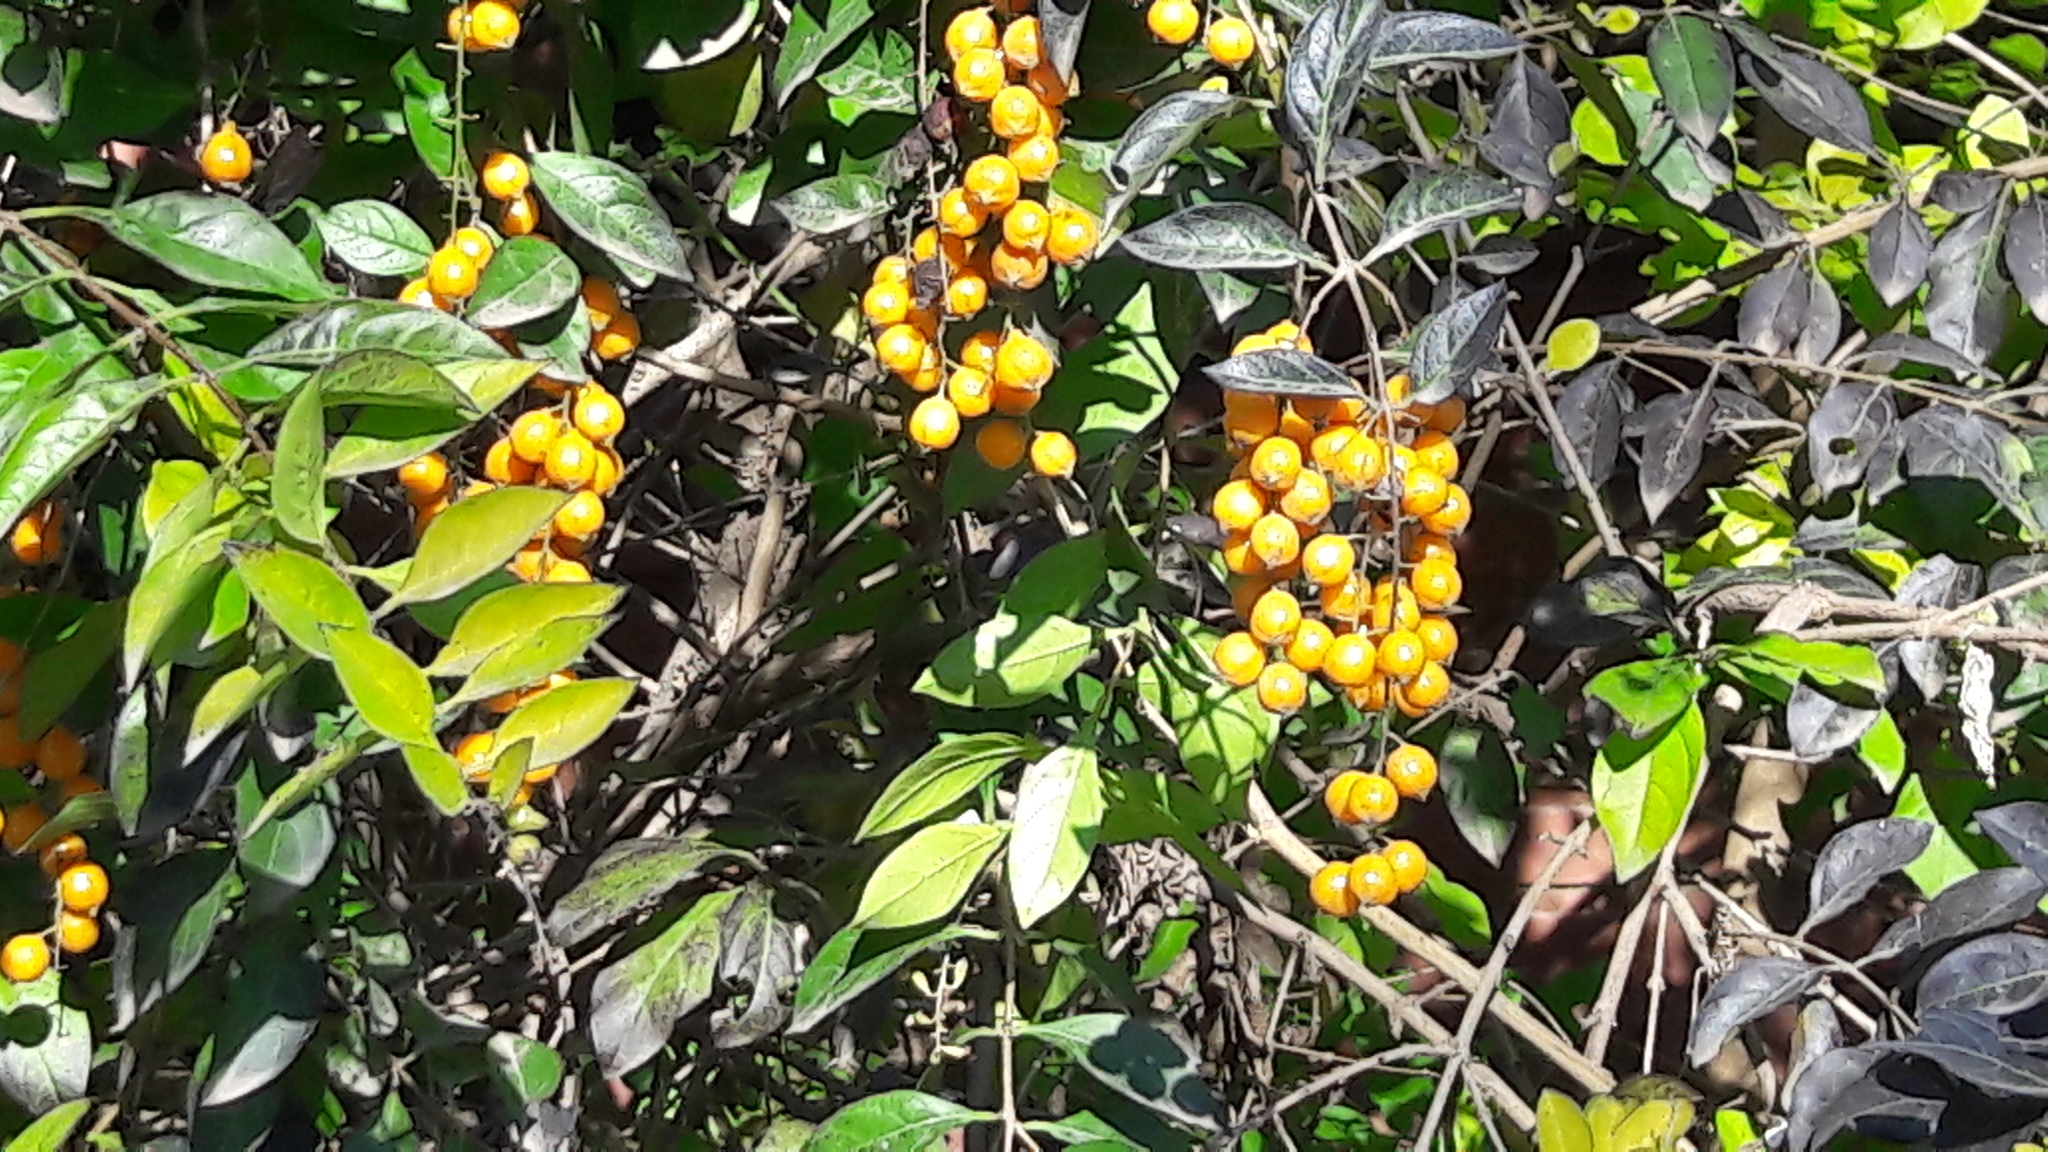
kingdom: Plantae
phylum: Tracheophyta
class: Magnoliopsida
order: Lamiales
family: Verbenaceae
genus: Duranta
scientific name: Duranta erecta
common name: Golden dewdrops
